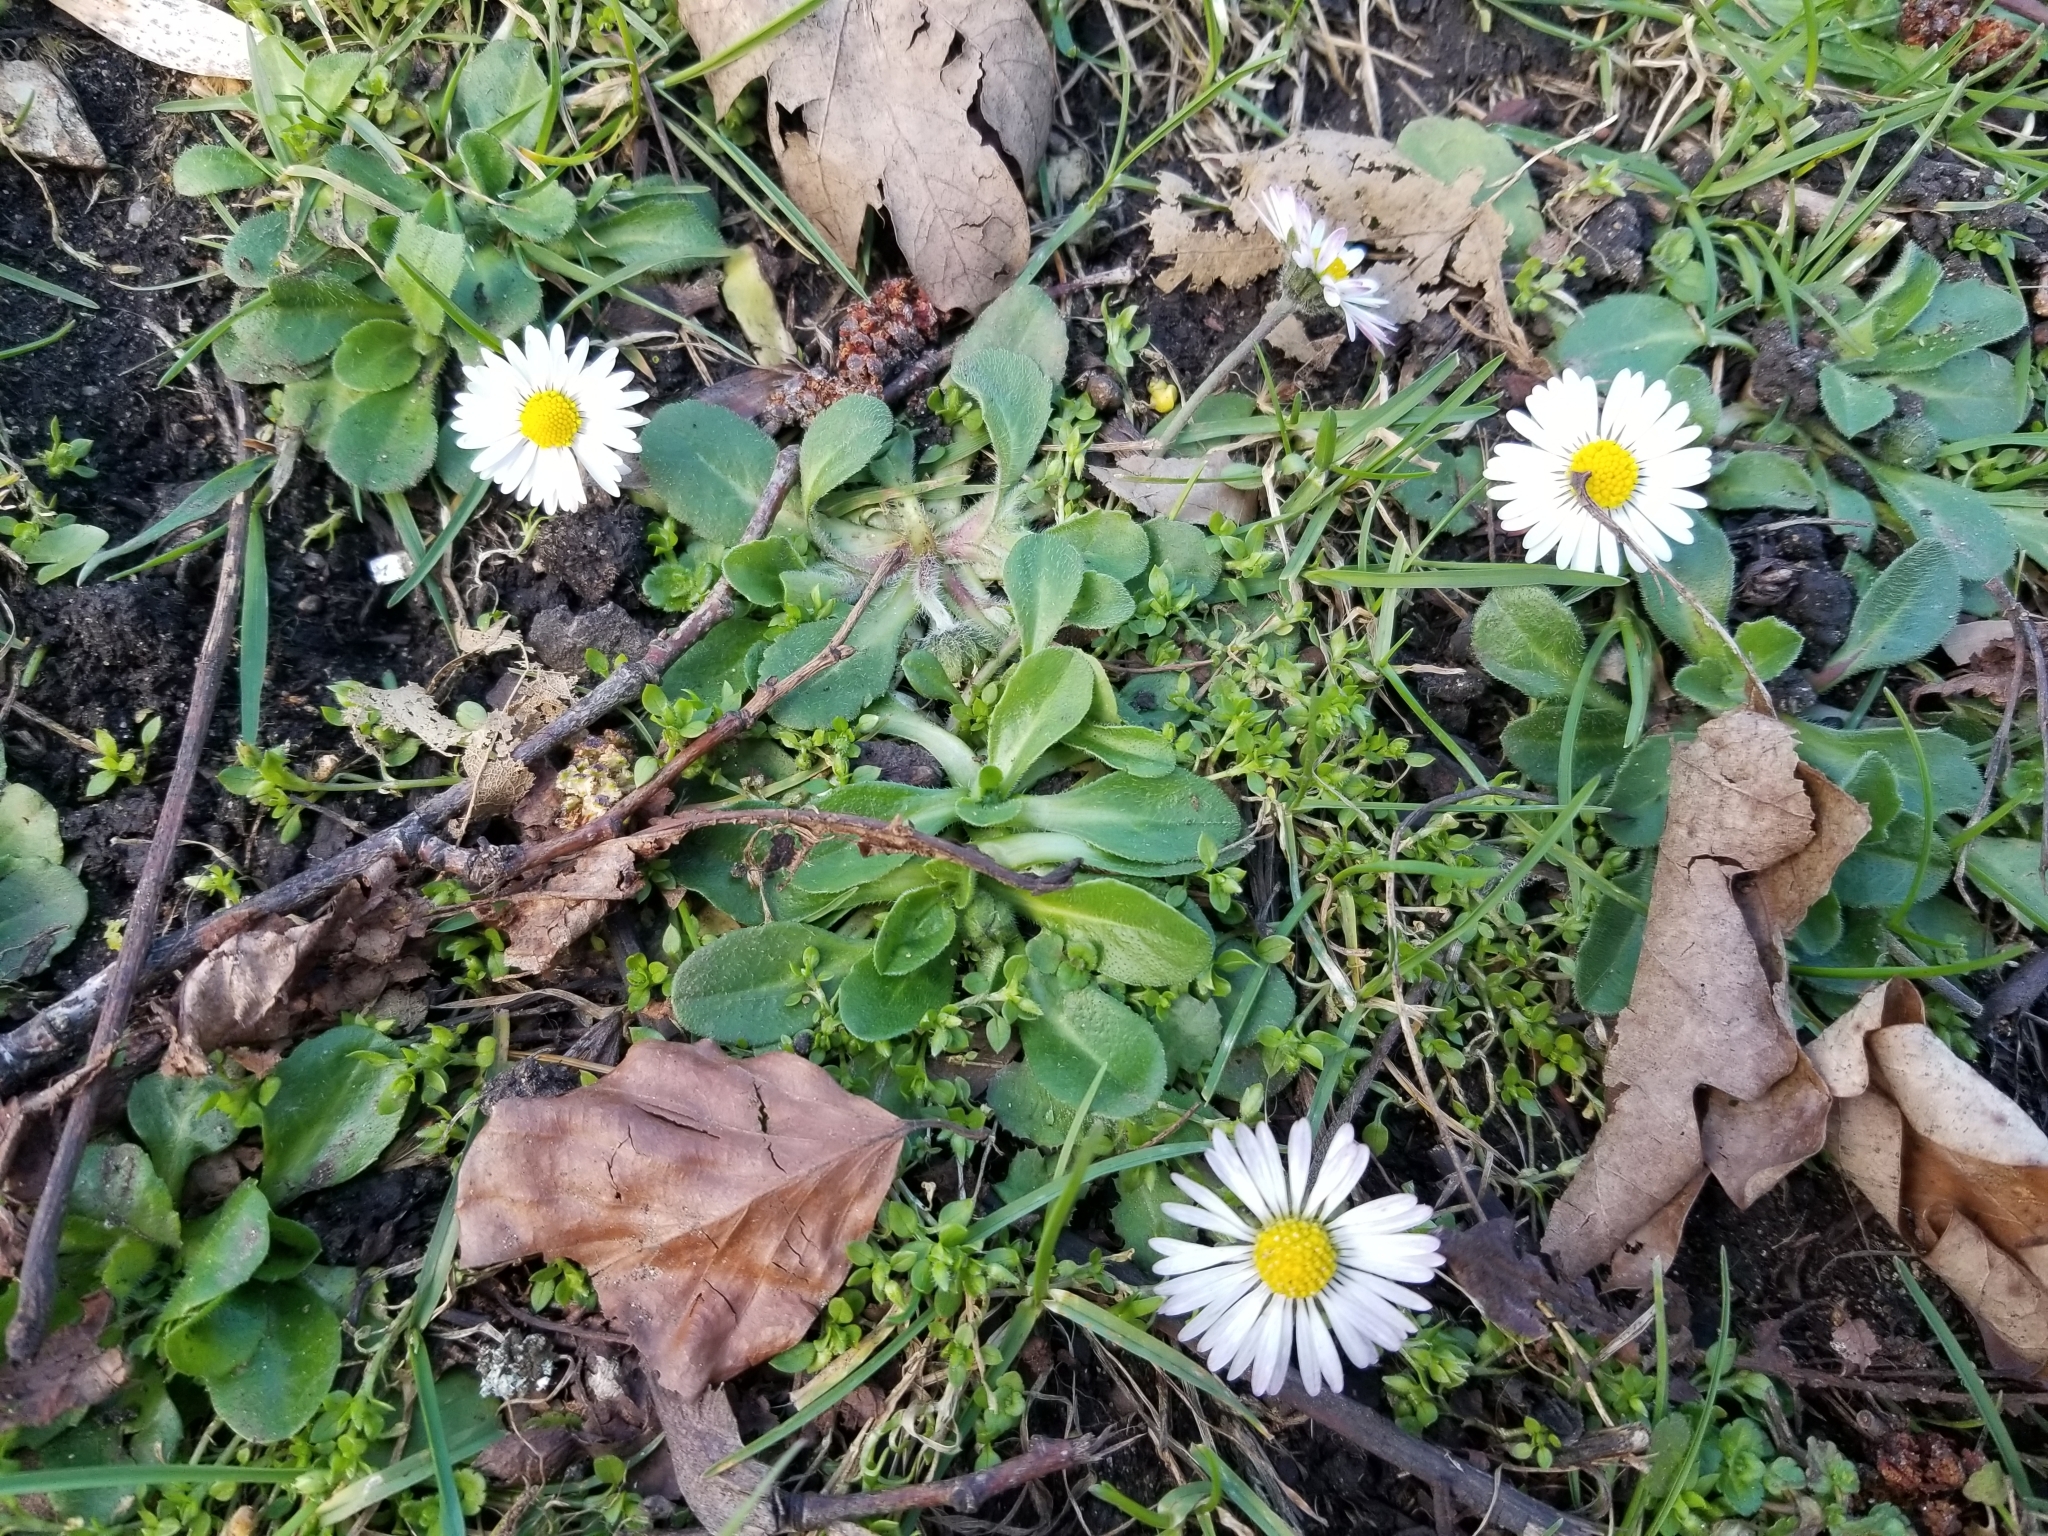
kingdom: Plantae
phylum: Tracheophyta
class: Magnoliopsida
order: Asterales
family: Asteraceae
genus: Bellis
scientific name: Bellis perennis
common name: Lawndaisy
